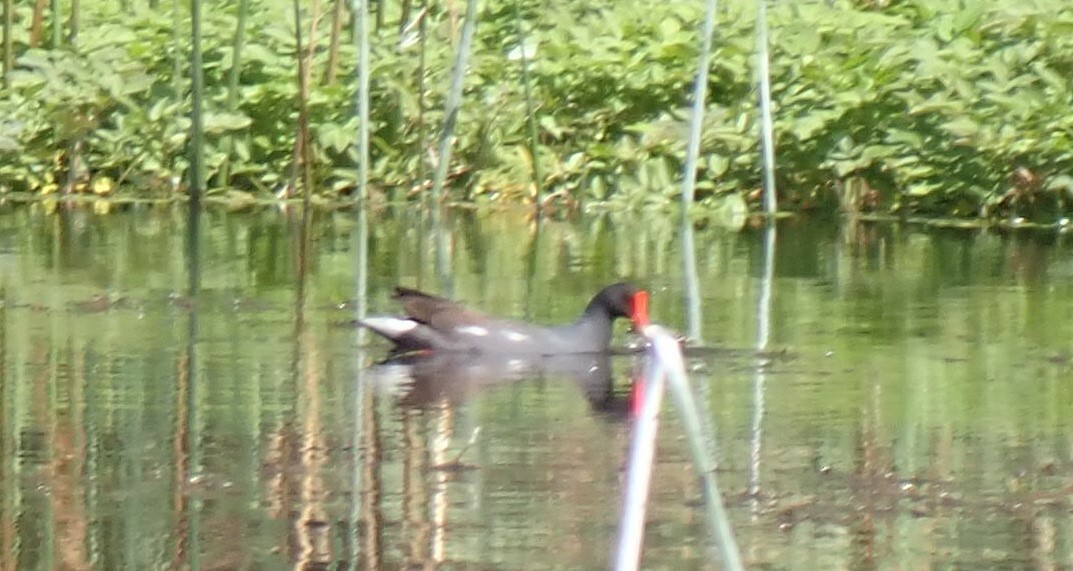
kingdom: Animalia
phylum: Chordata
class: Aves
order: Gruiformes
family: Rallidae
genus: Gallinula
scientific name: Gallinula chloropus
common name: Common moorhen
